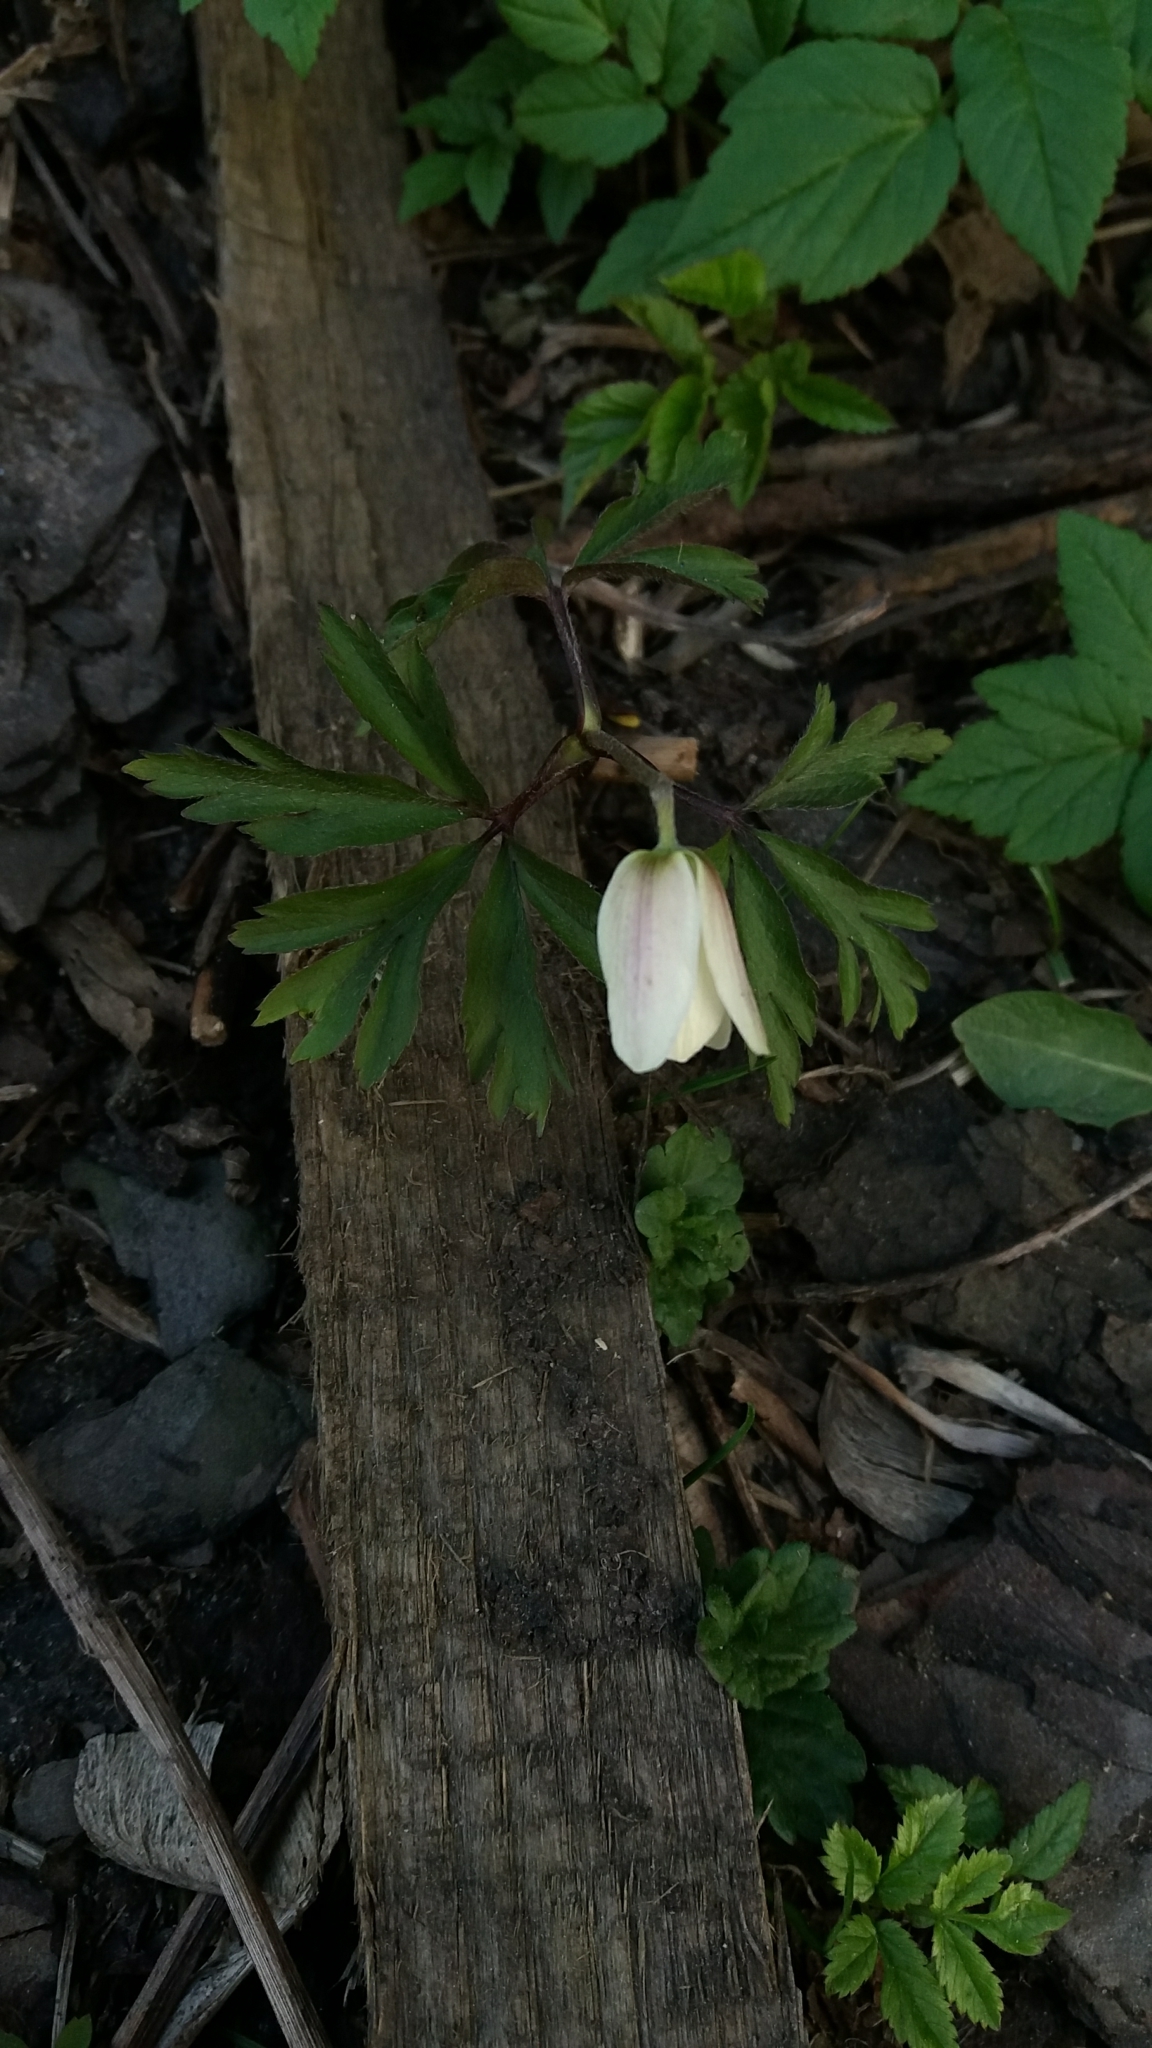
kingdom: Plantae
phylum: Tracheophyta
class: Magnoliopsida
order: Ranunculales
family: Ranunculaceae
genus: Anemone
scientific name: Anemone nemorosa
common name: Wood anemone
